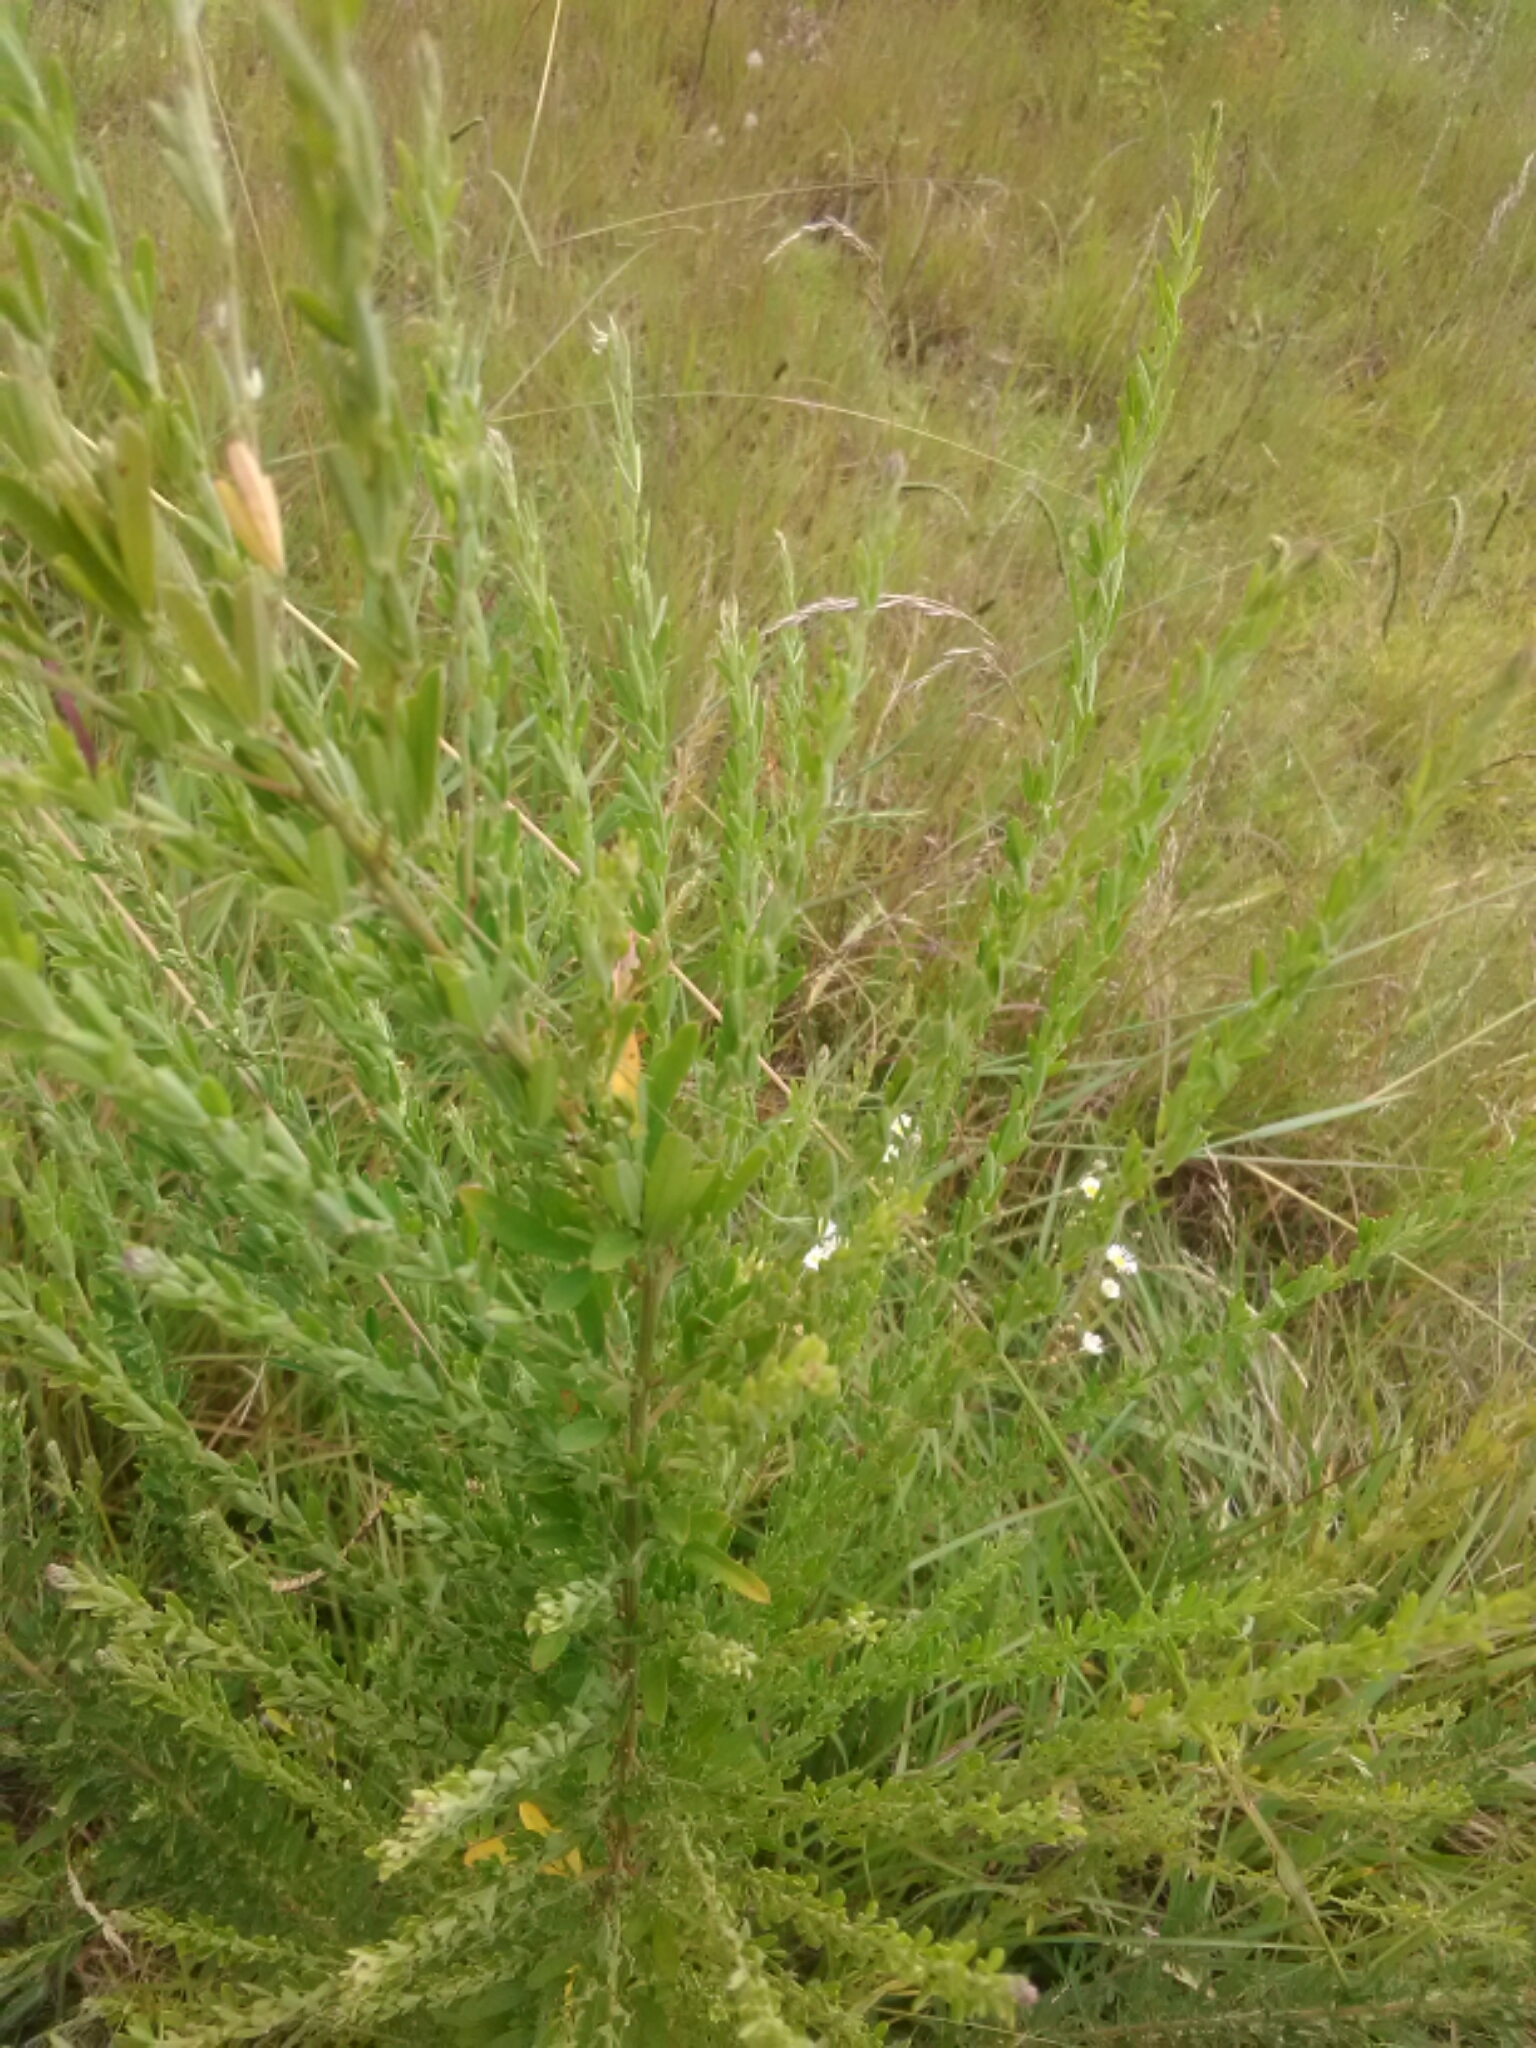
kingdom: Plantae
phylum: Tracheophyta
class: Magnoliopsida
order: Fabales
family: Fabaceae
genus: Lespedeza
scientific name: Lespedeza cuneata
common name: Chinese bush-clover
